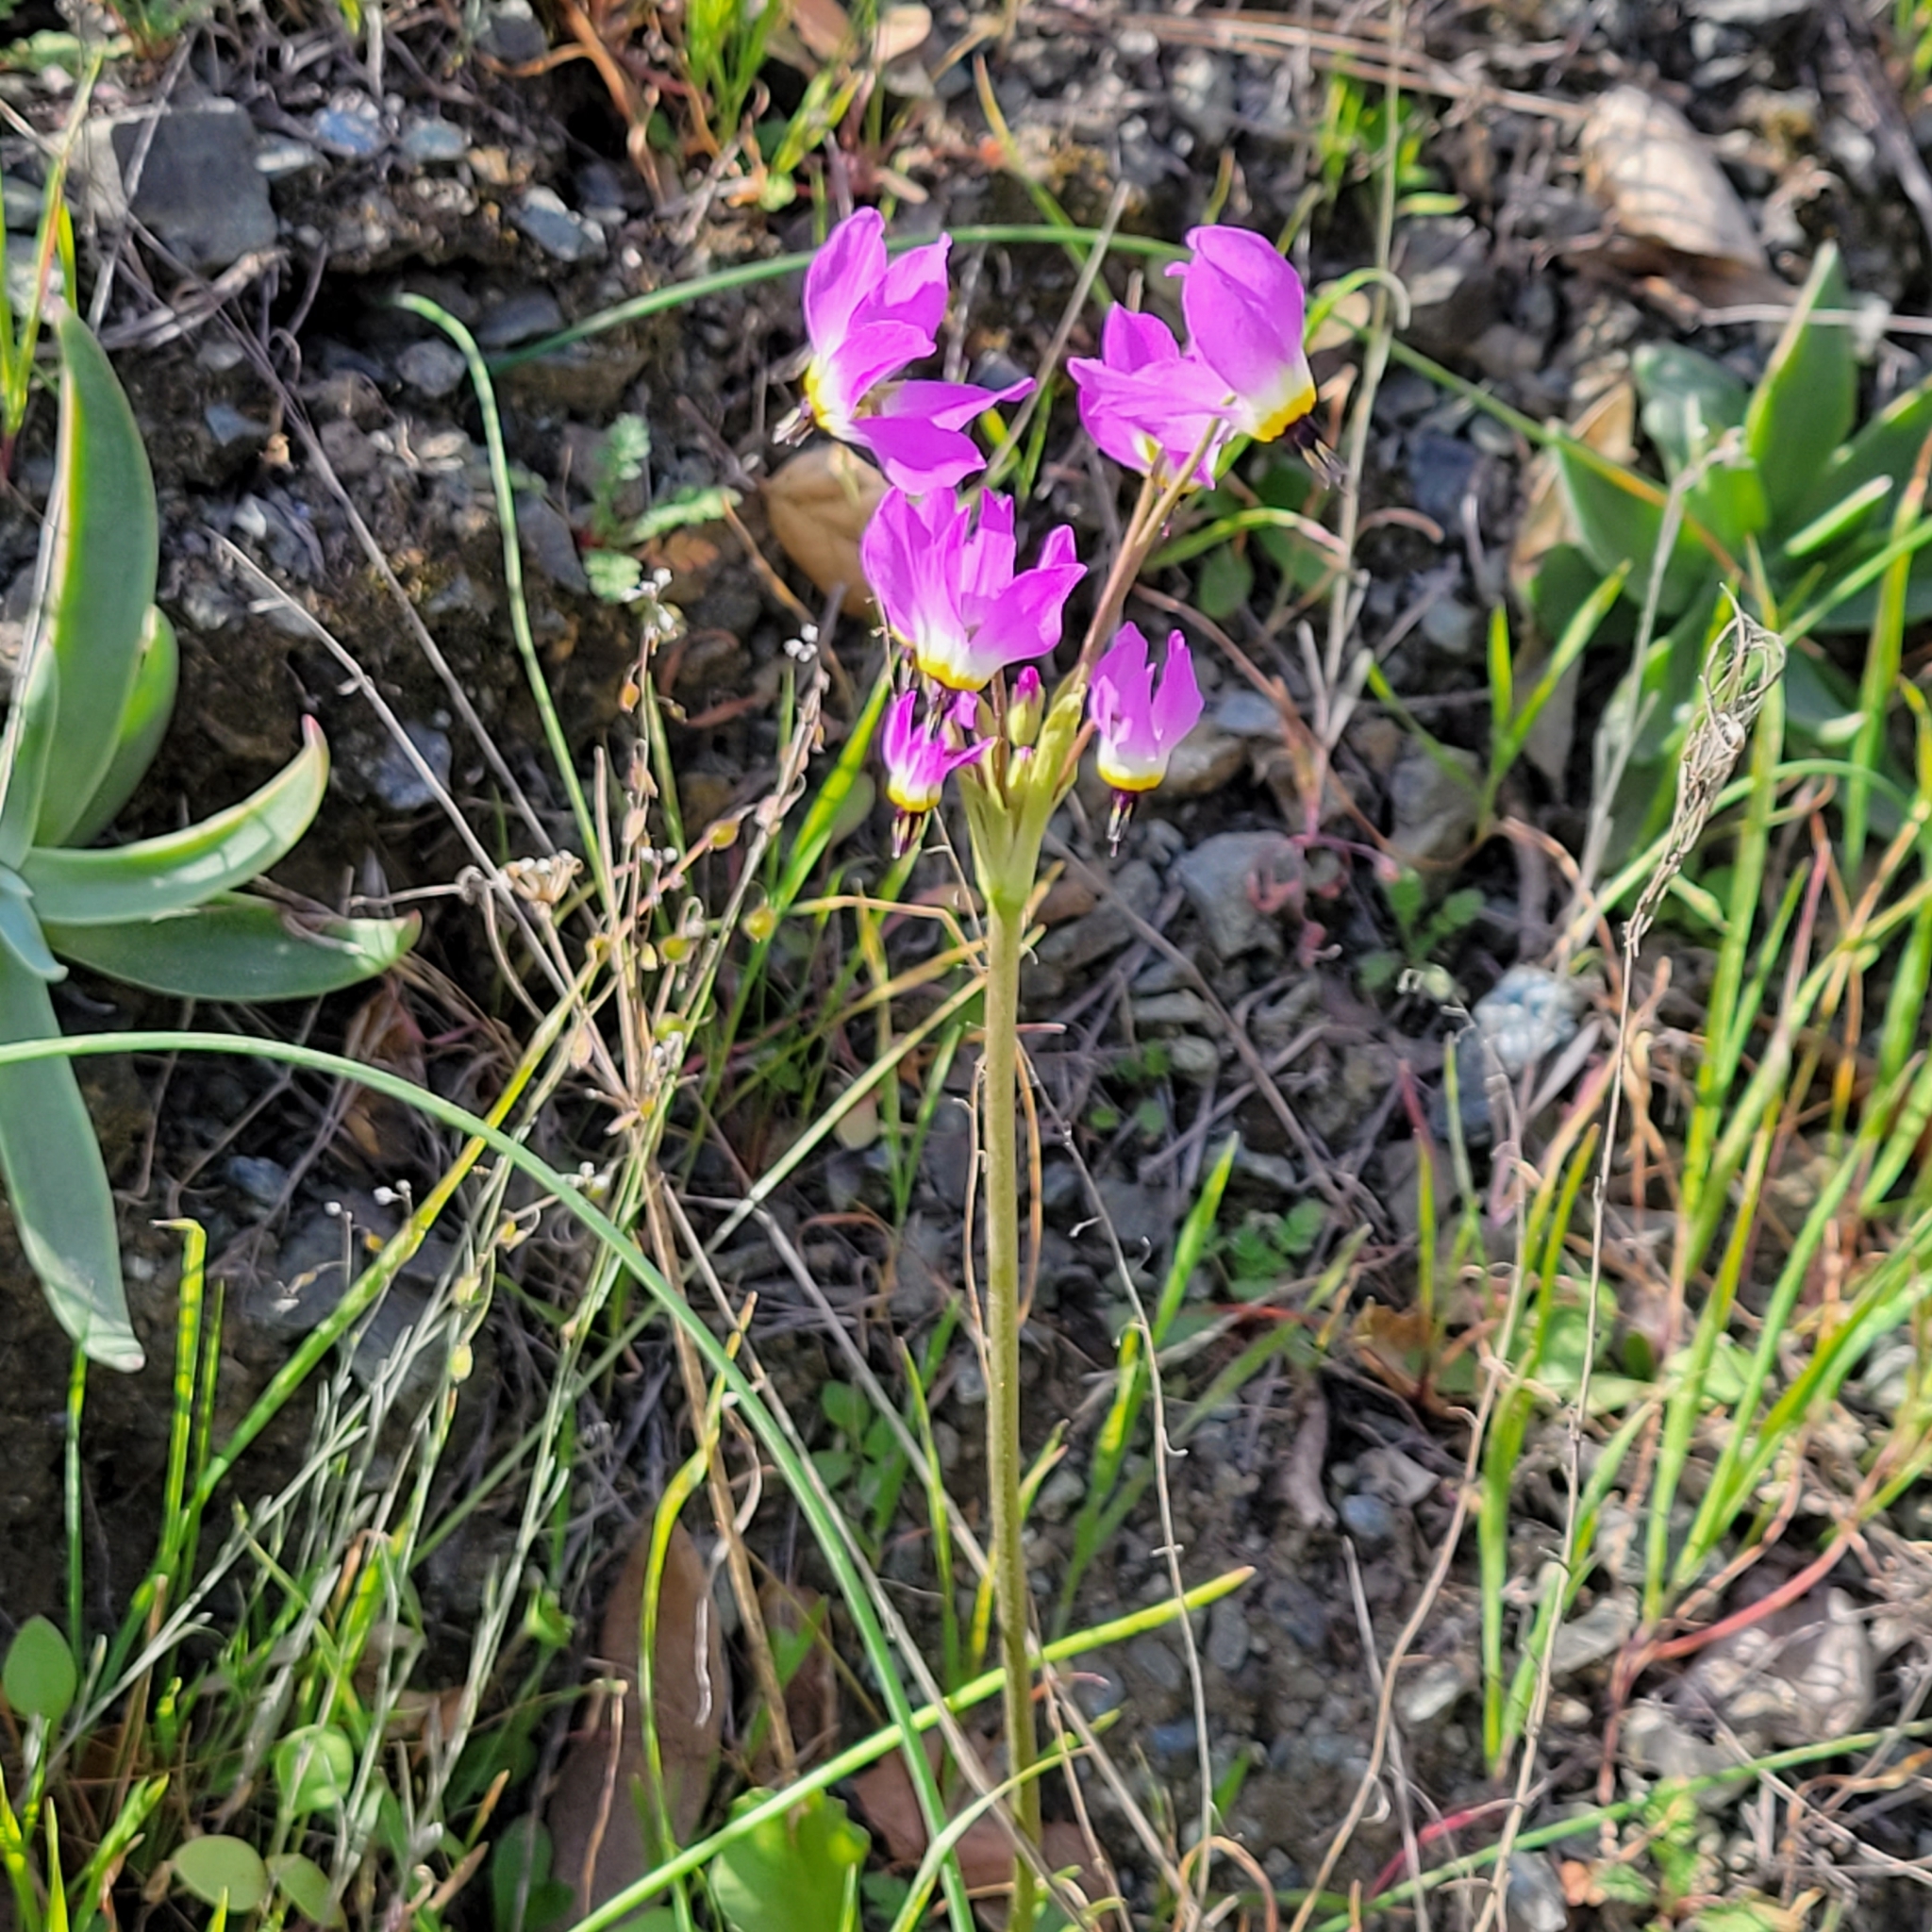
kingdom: Plantae
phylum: Tracheophyta
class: Magnoliopsida
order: Ericales
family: Primulaceae
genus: Dodecatheon
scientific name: Dodecatheon clevelandii
